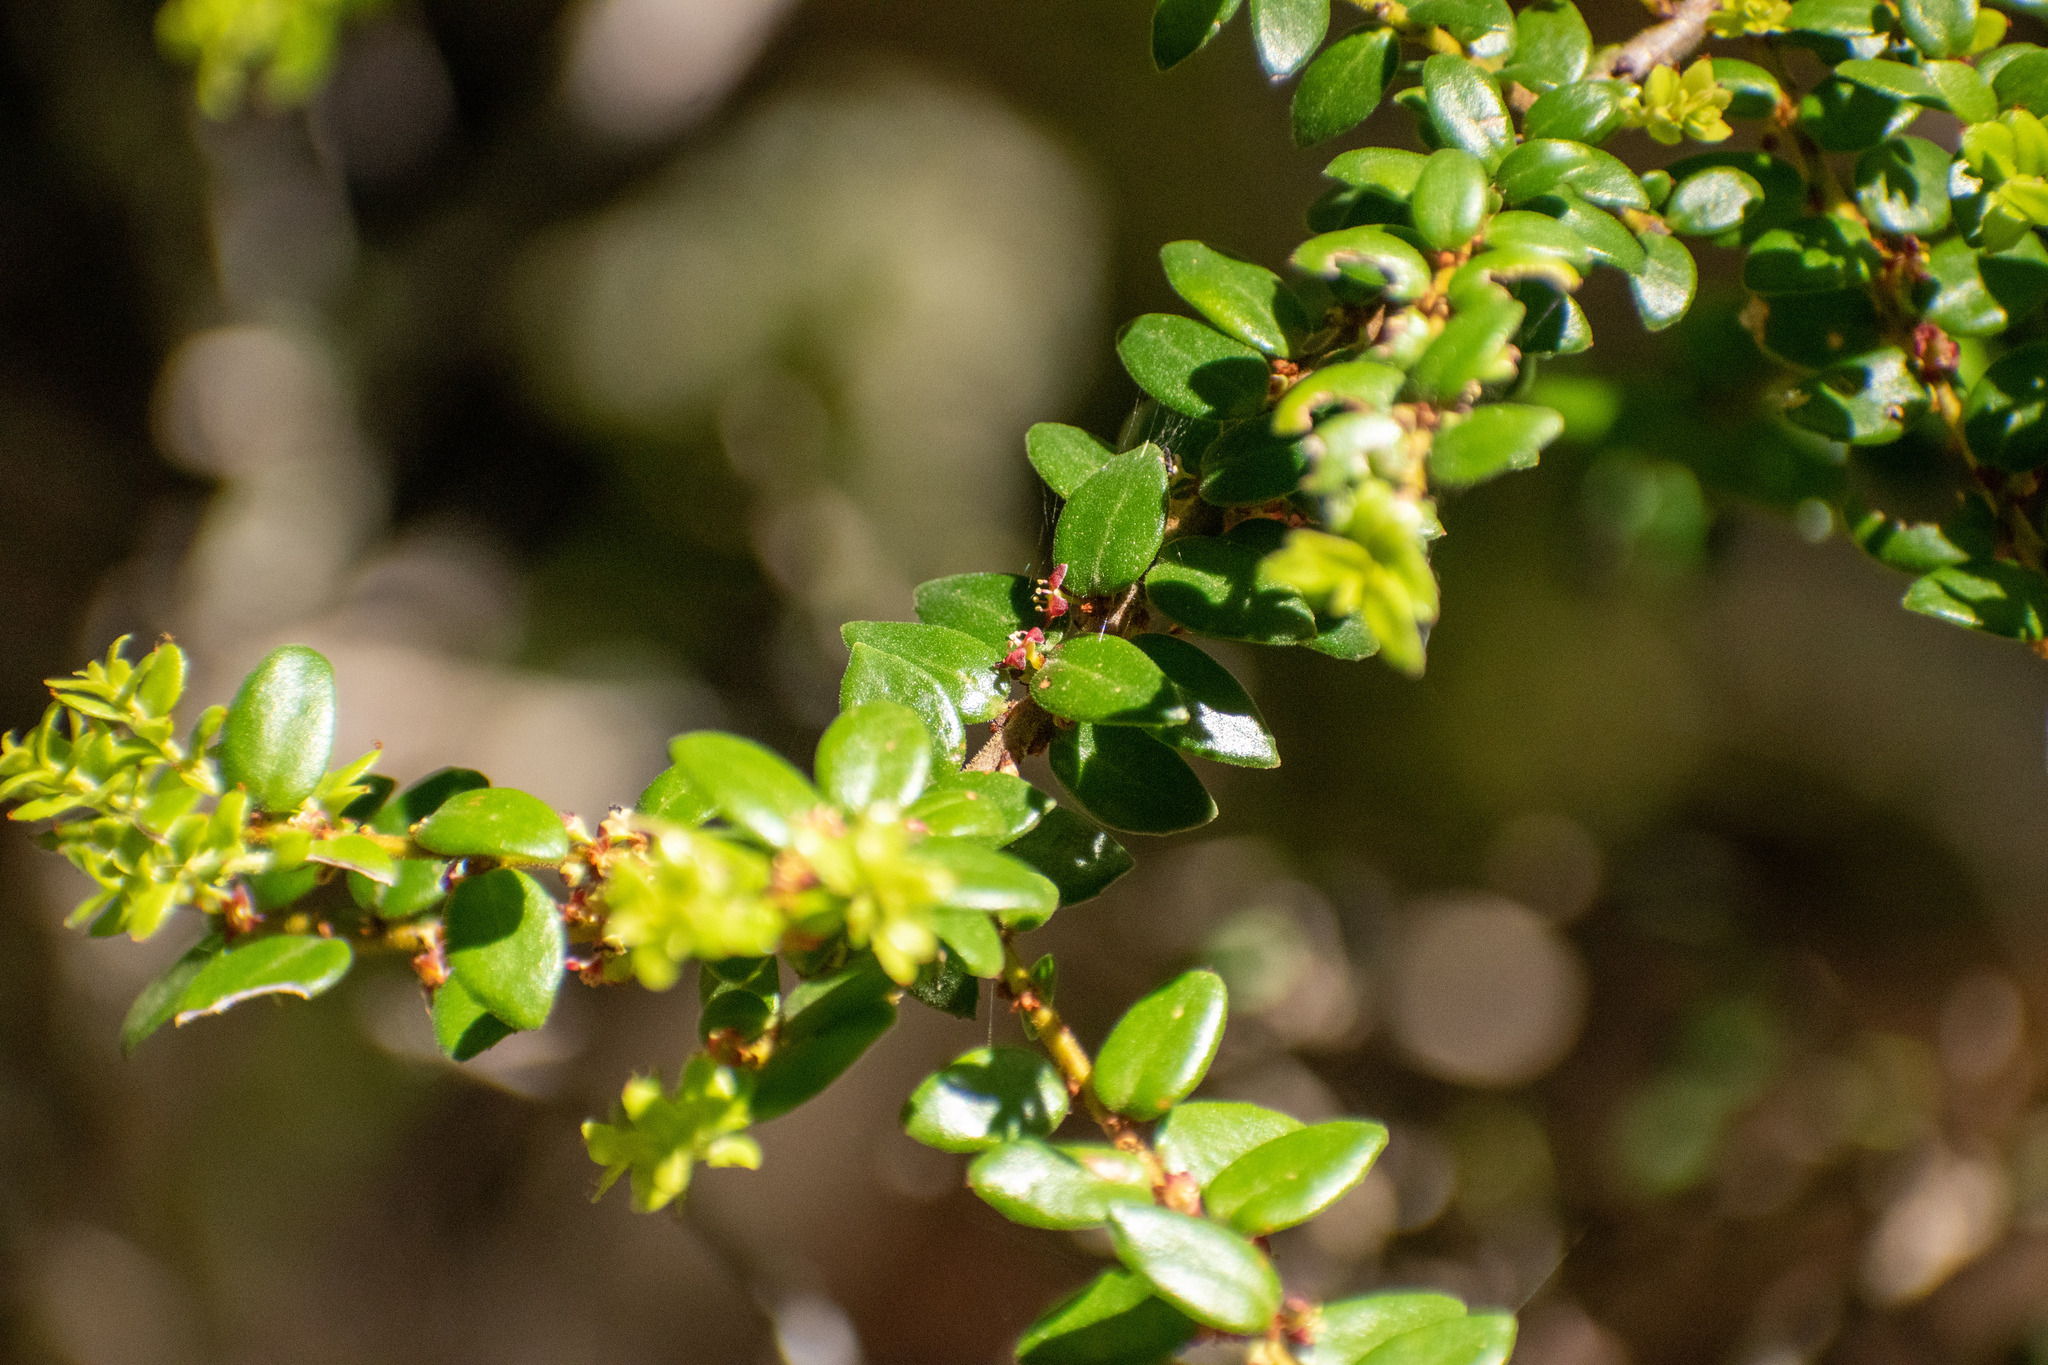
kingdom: Plantae
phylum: Tracheophyta
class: Magnoliopsida
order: Celastrales
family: Celastraceae
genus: Maytenus
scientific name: Maytenus chubutensis
